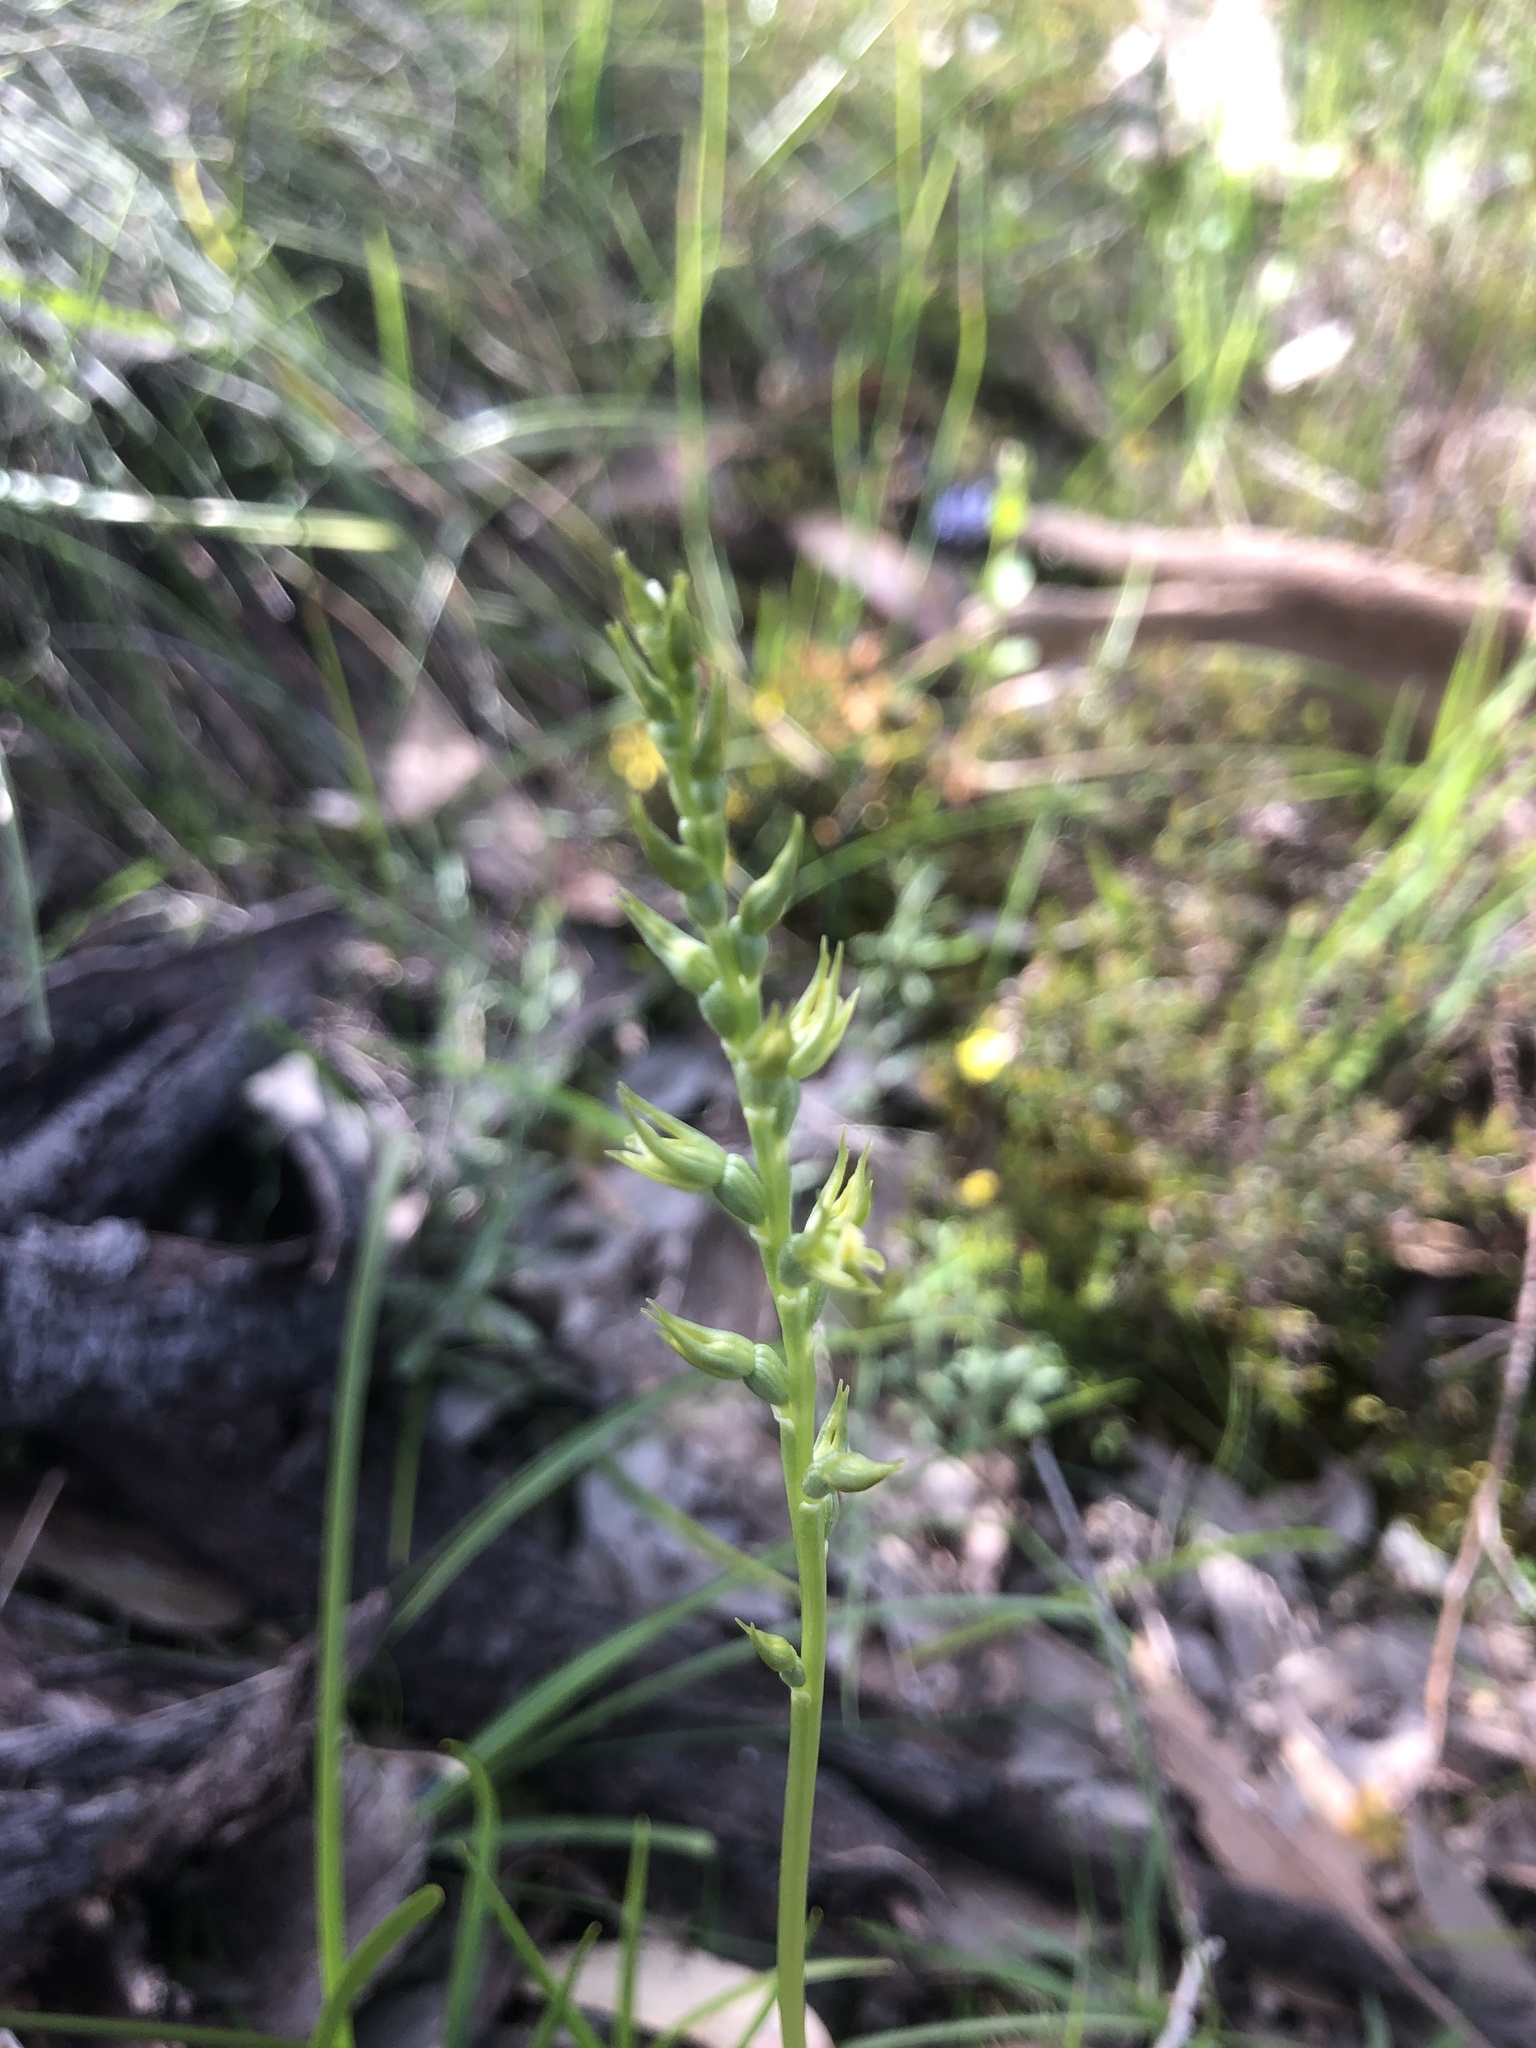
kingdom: Plantae
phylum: Tracheophyta
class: Liliopsida
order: Asparagales
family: Orchidaceae
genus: Prasophyllum
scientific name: Prasophyllum pallidum
